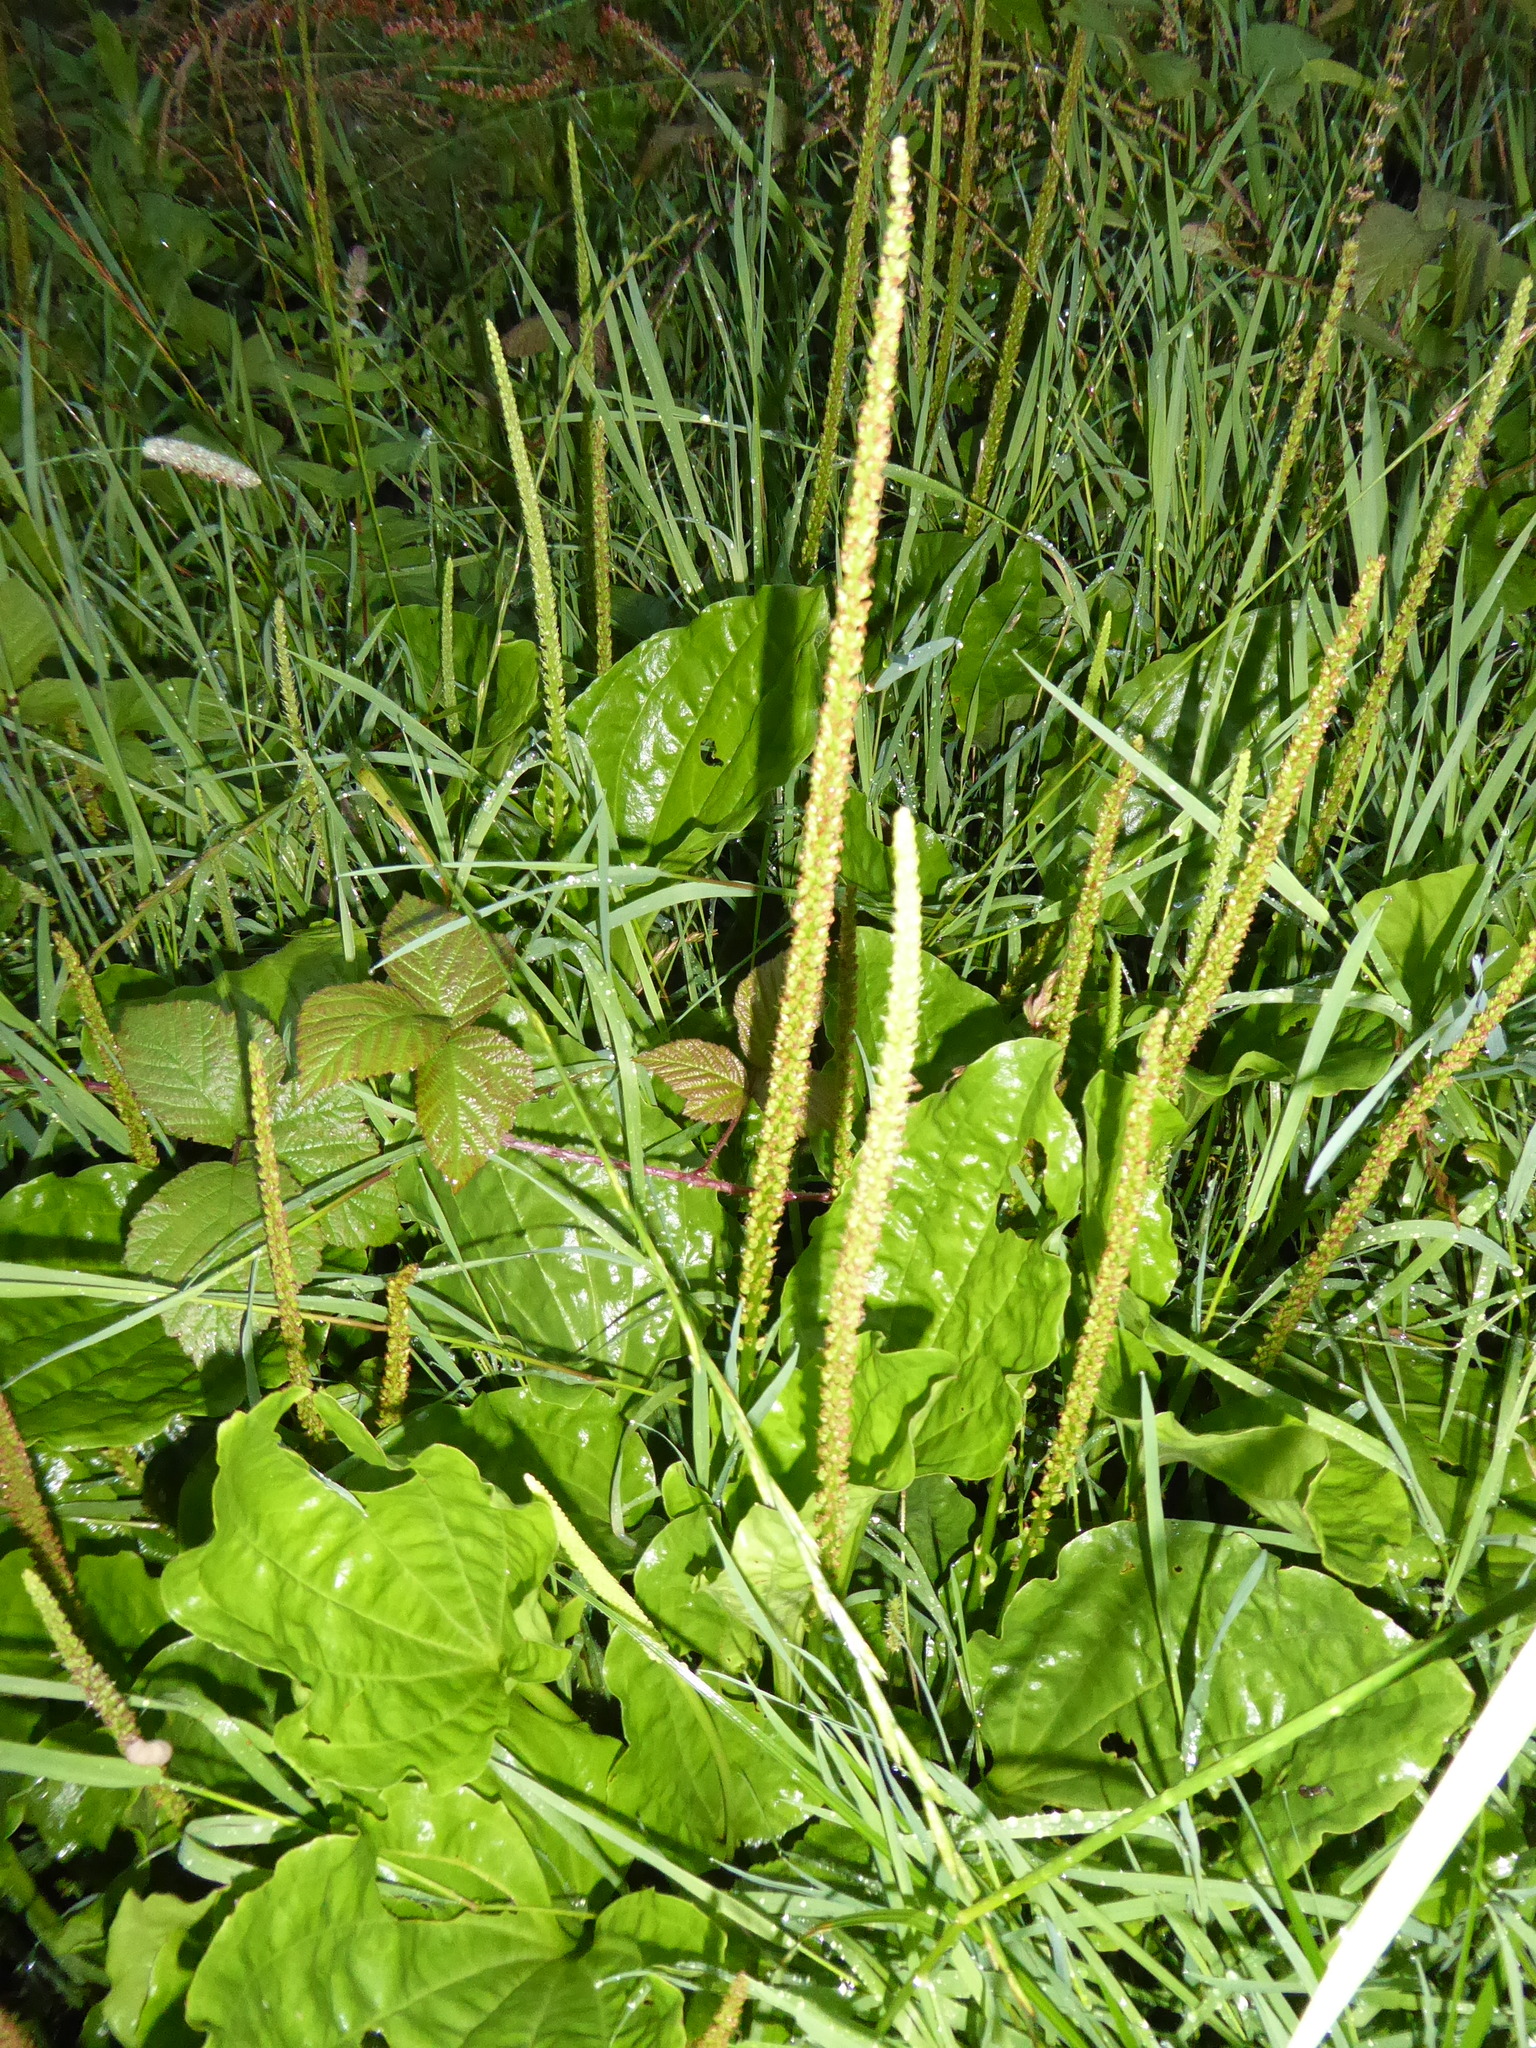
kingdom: Plantae
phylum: Tracheophyta
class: Magnoliopsida
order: Lamiales
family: Plantaginaceae
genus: Plantago
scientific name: Plantago major
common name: Common plantain
